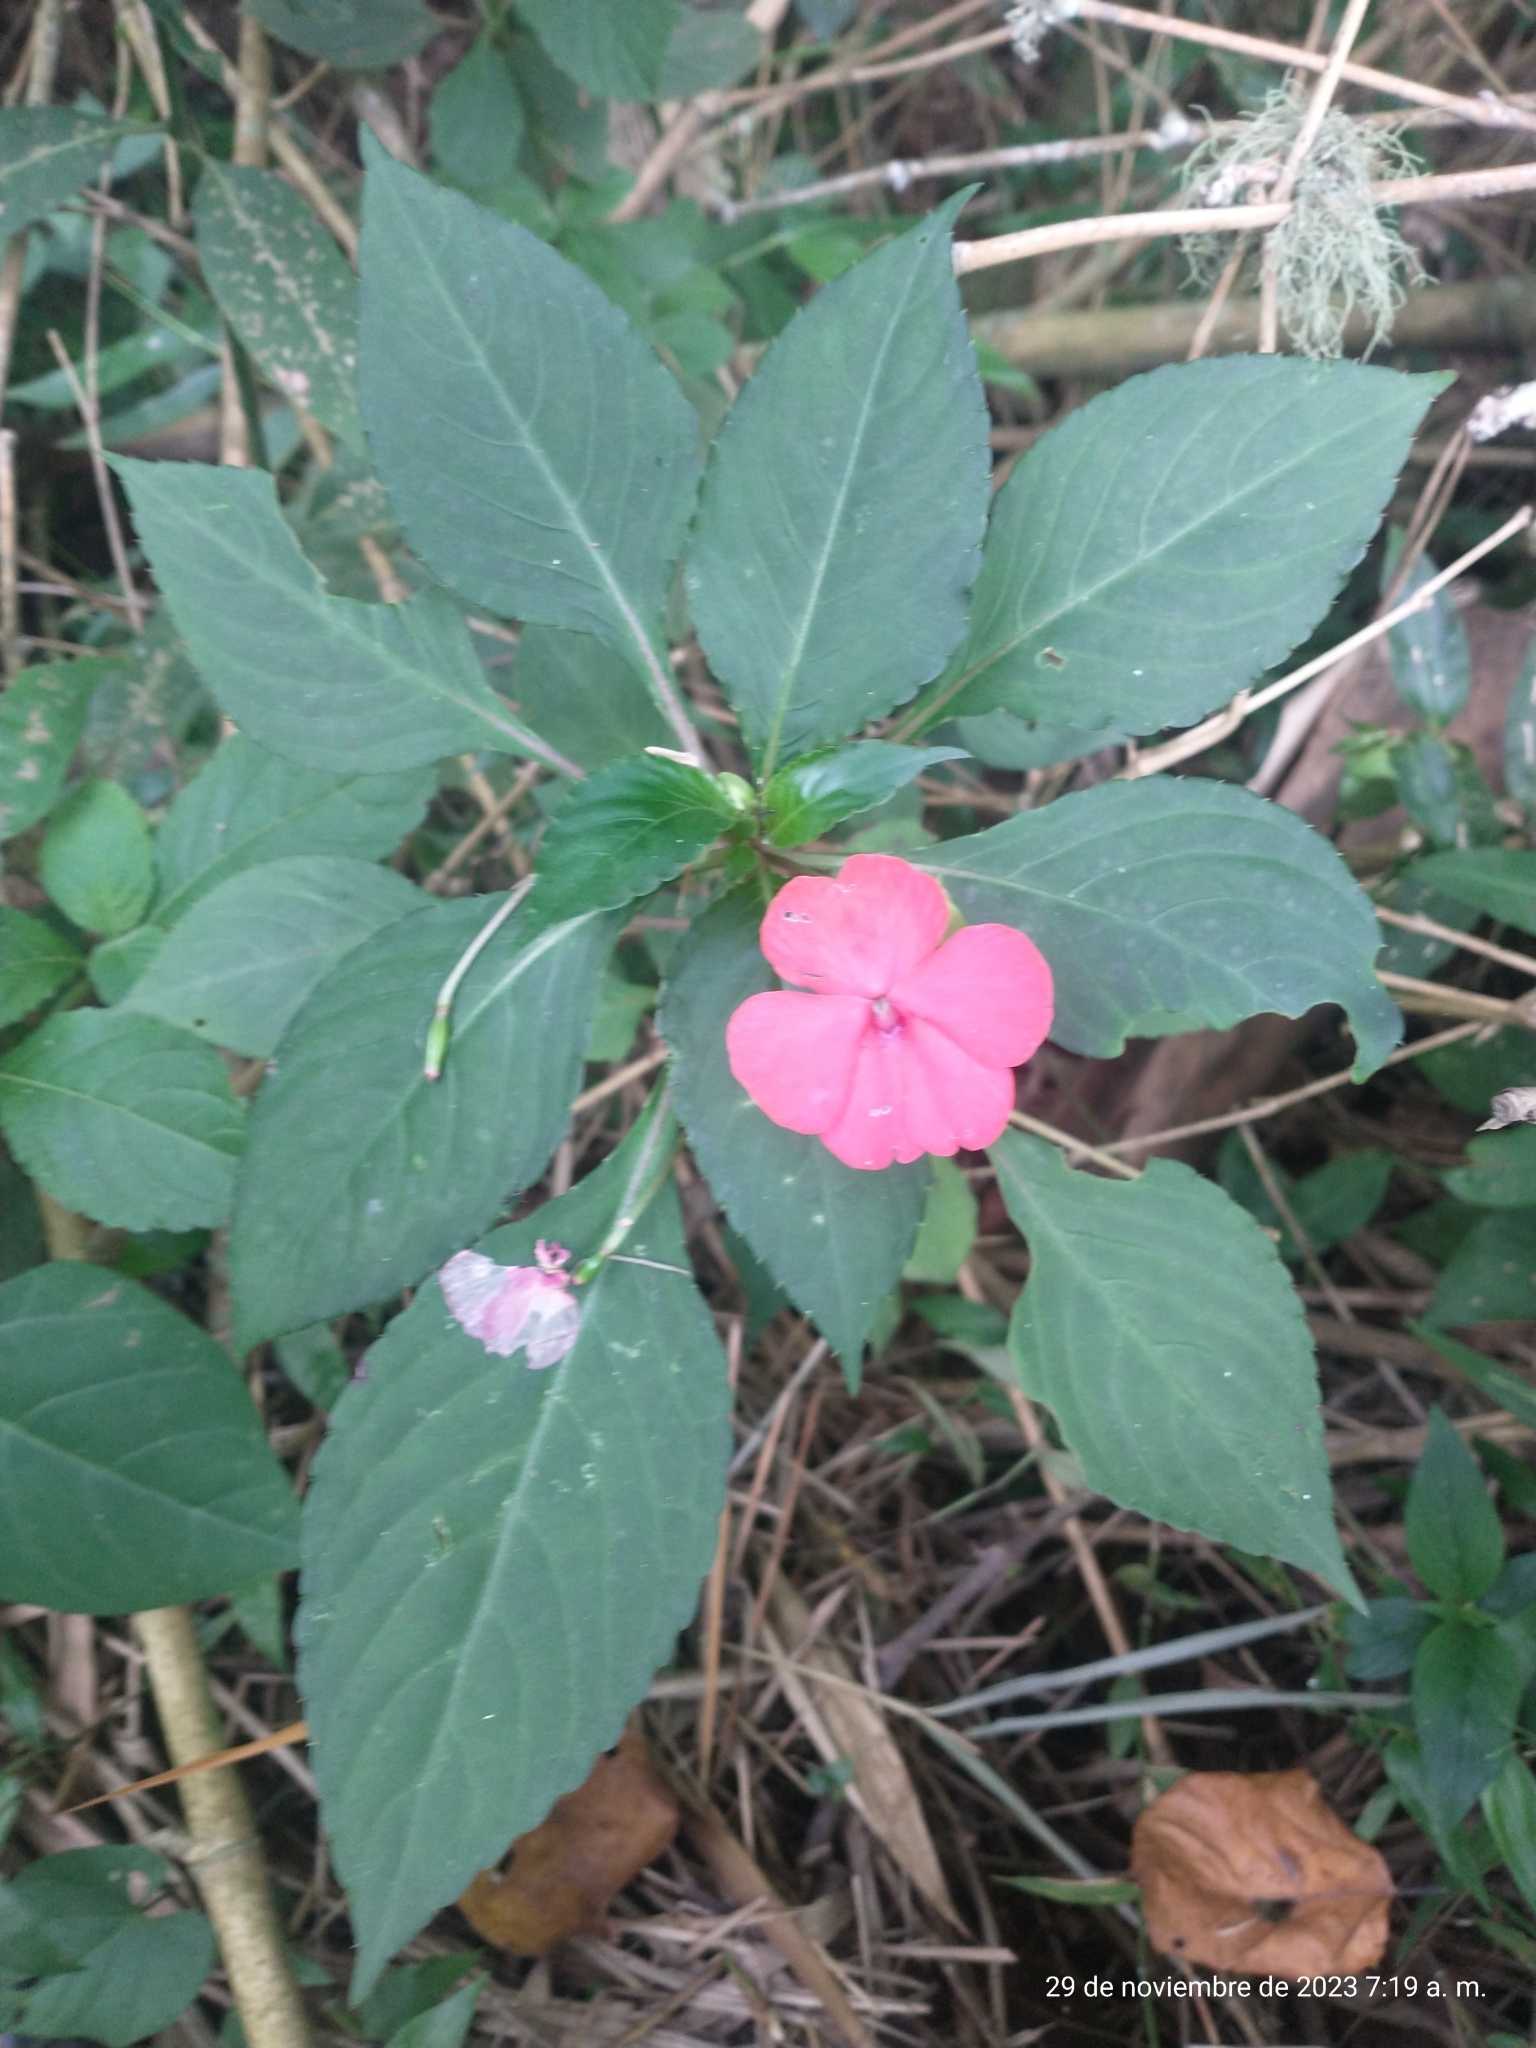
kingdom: Plantae
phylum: Tracheophyta
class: Magnoliopsida
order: Ericales
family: Balsaminaceae
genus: Impatiens
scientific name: Impatiens walleriana
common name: Buzzy lizzy
